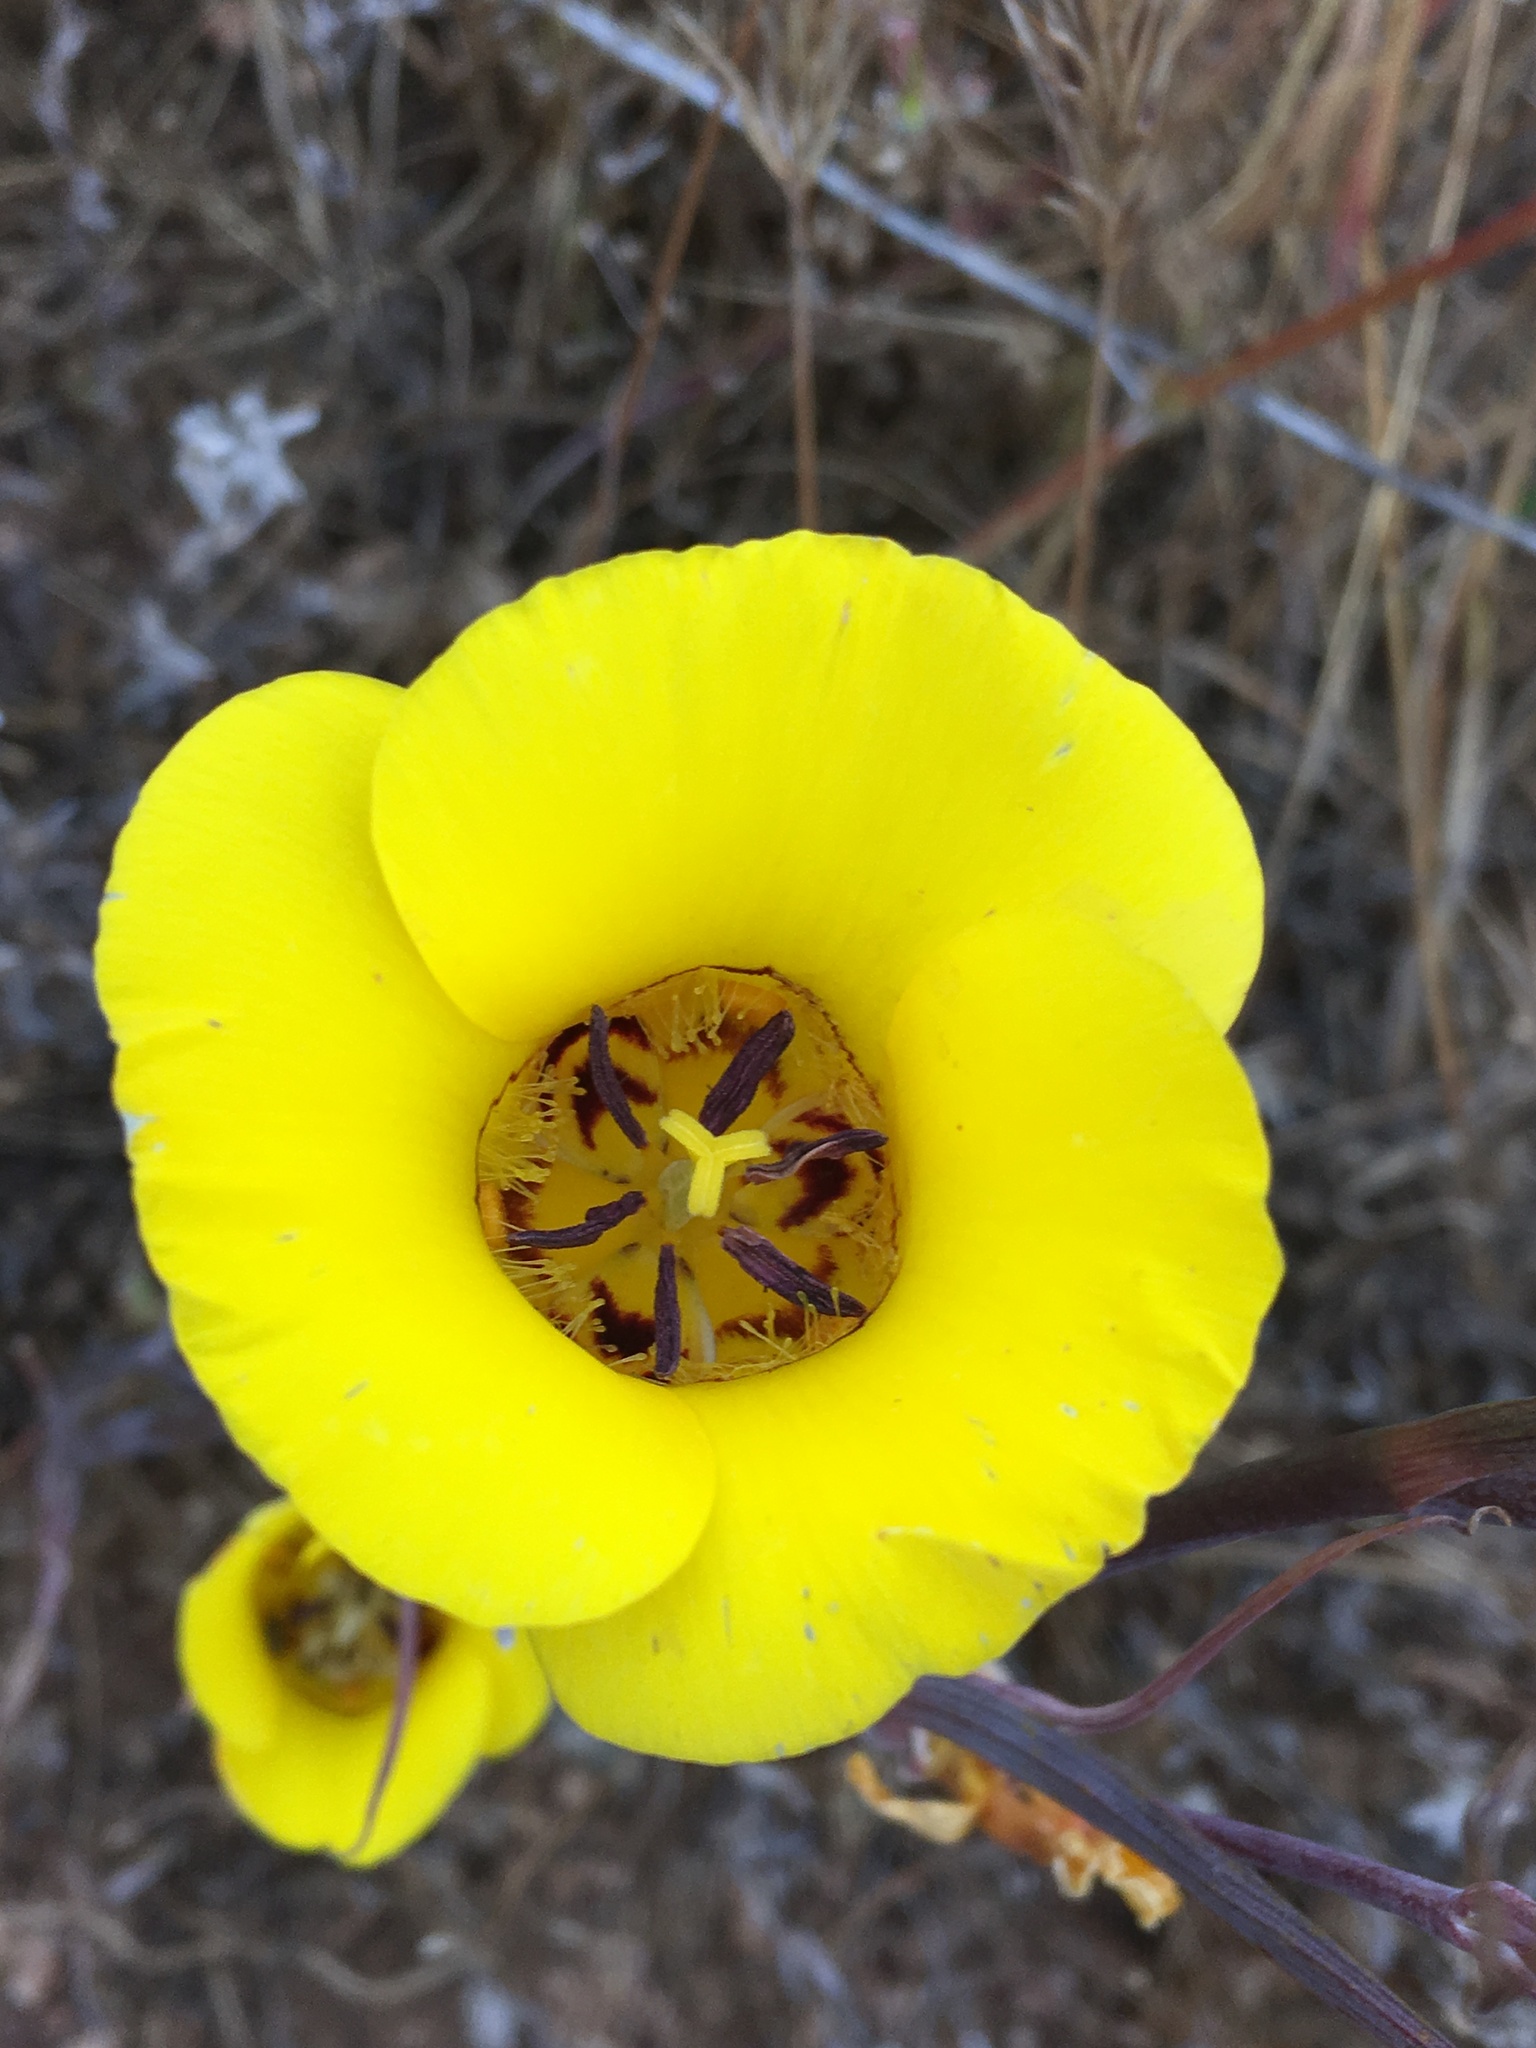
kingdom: Plantae
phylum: Tracheophyta
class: Liliopsida
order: Liliales
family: Liliaceae
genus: Calochortus
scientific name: Calochortus clavatus
